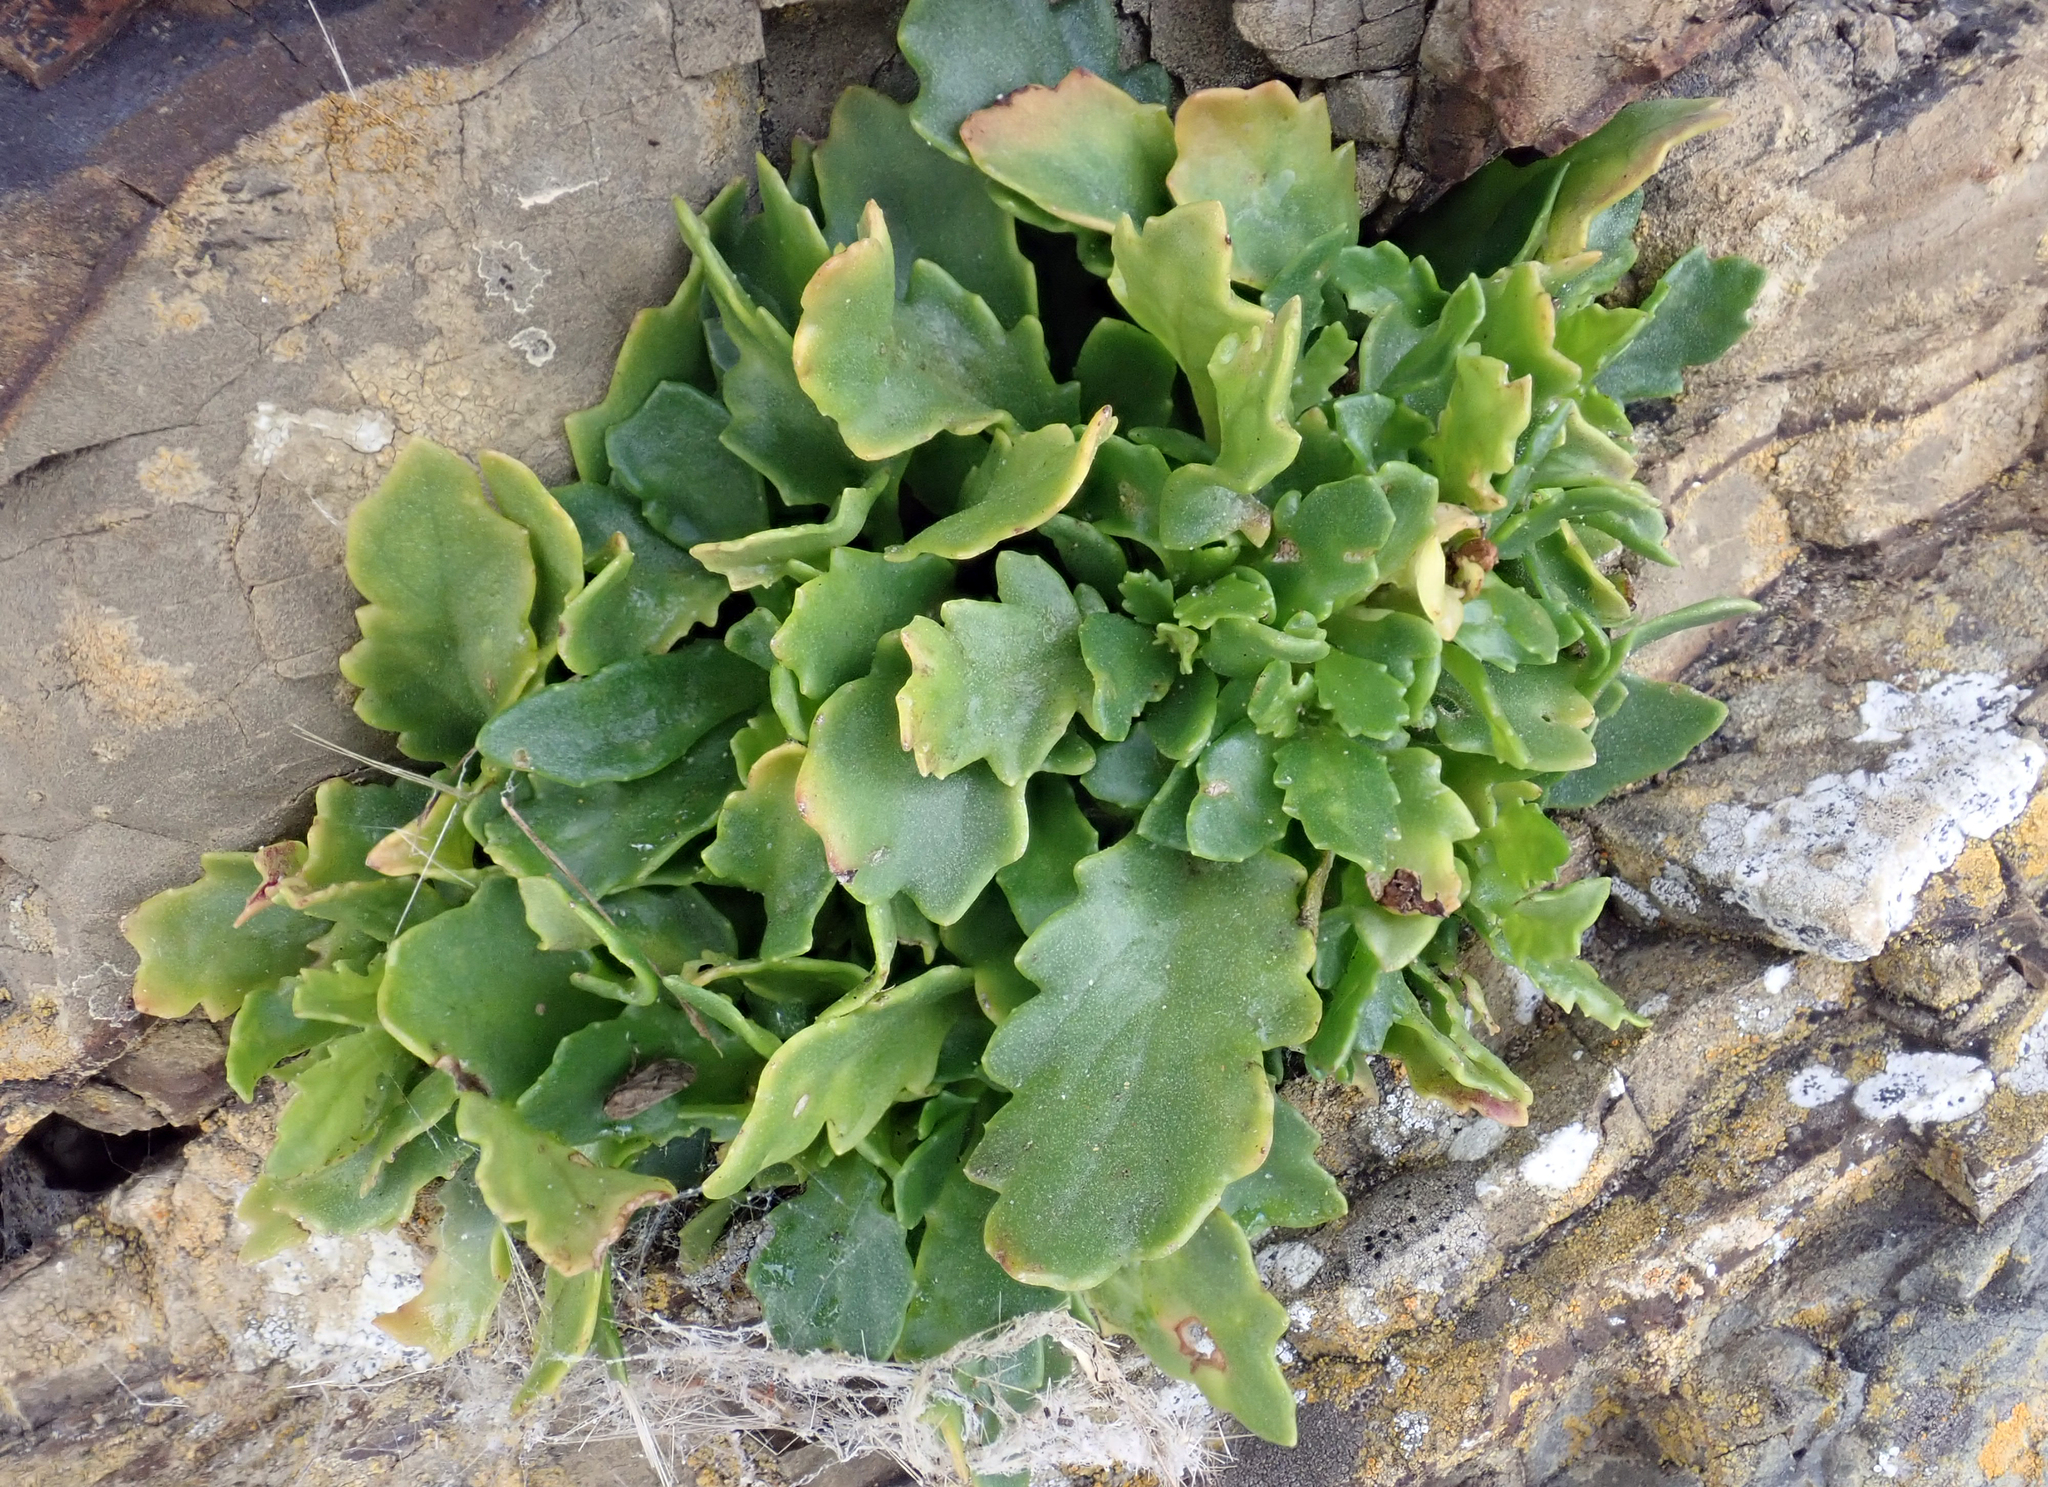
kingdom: Plantae
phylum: Tracheophyta
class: Magnoliopsida
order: Asterales
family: Asteraceae
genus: Senecio
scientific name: Senecio matatini
